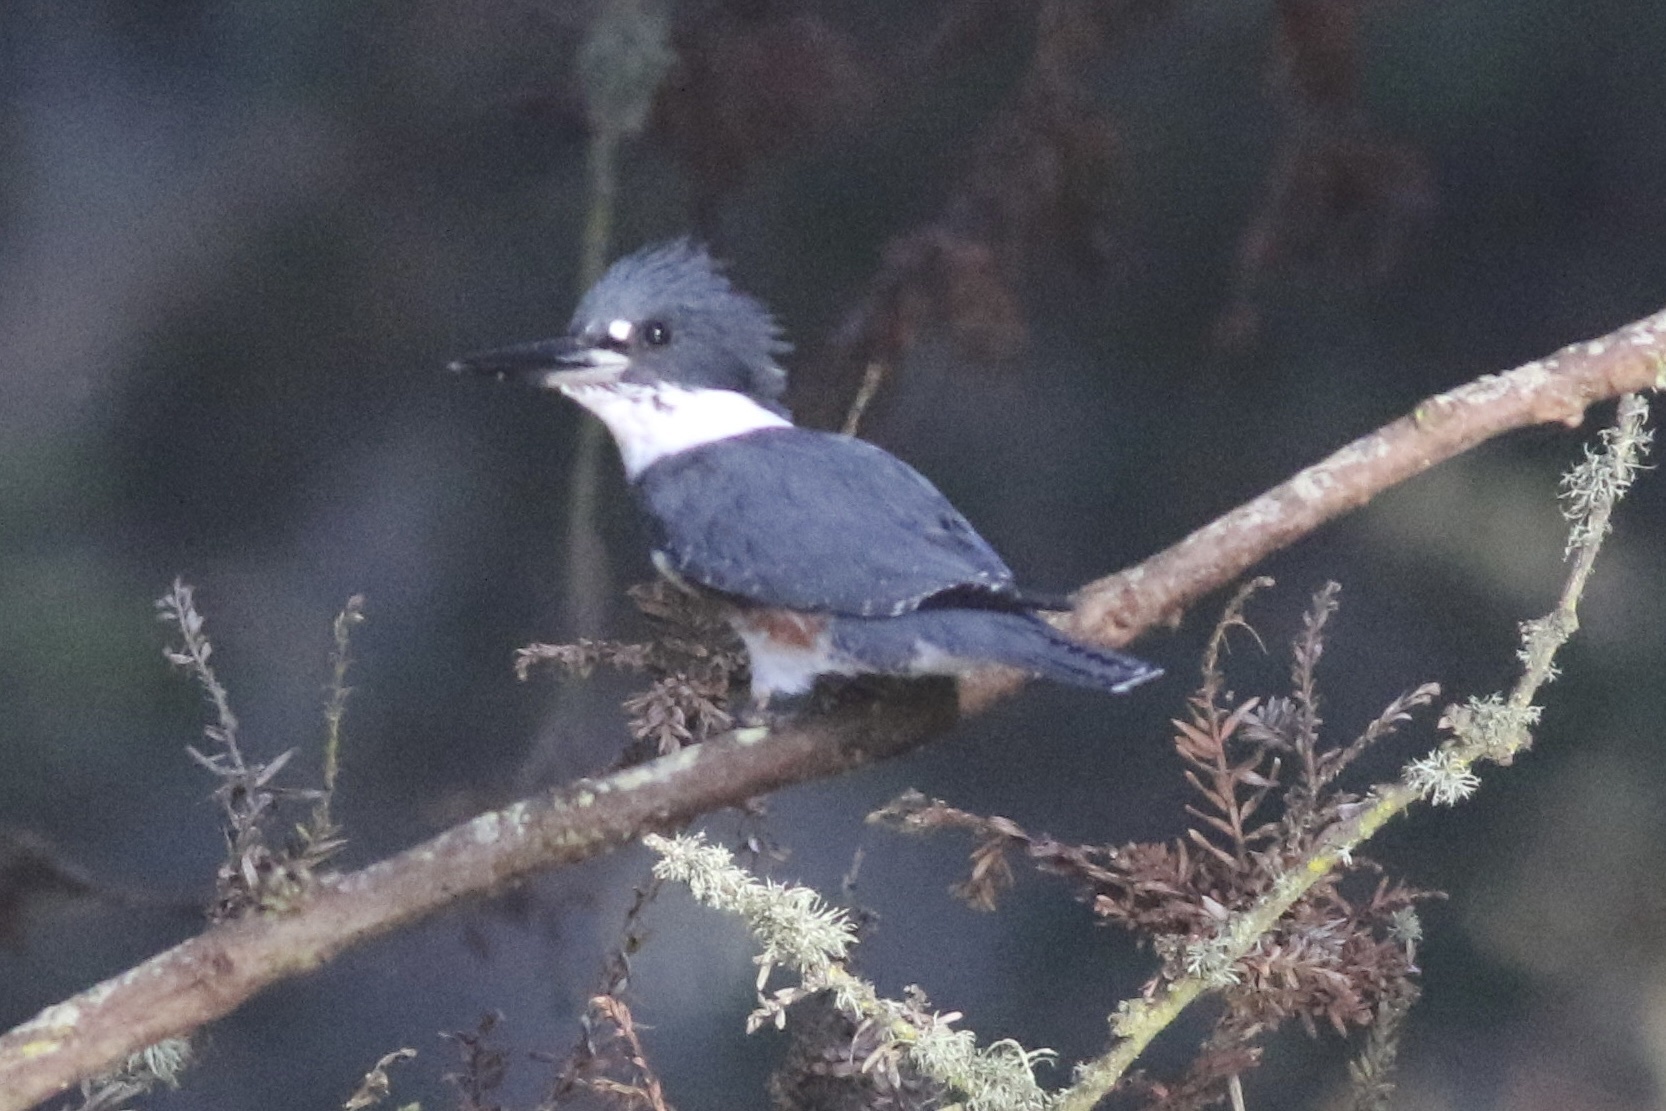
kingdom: Animalia
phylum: Chordata
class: Aves
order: Coraciiformes
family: Alcedinidae
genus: Megaceryle
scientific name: Megaceryle alcyon
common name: Belted kingfisher
